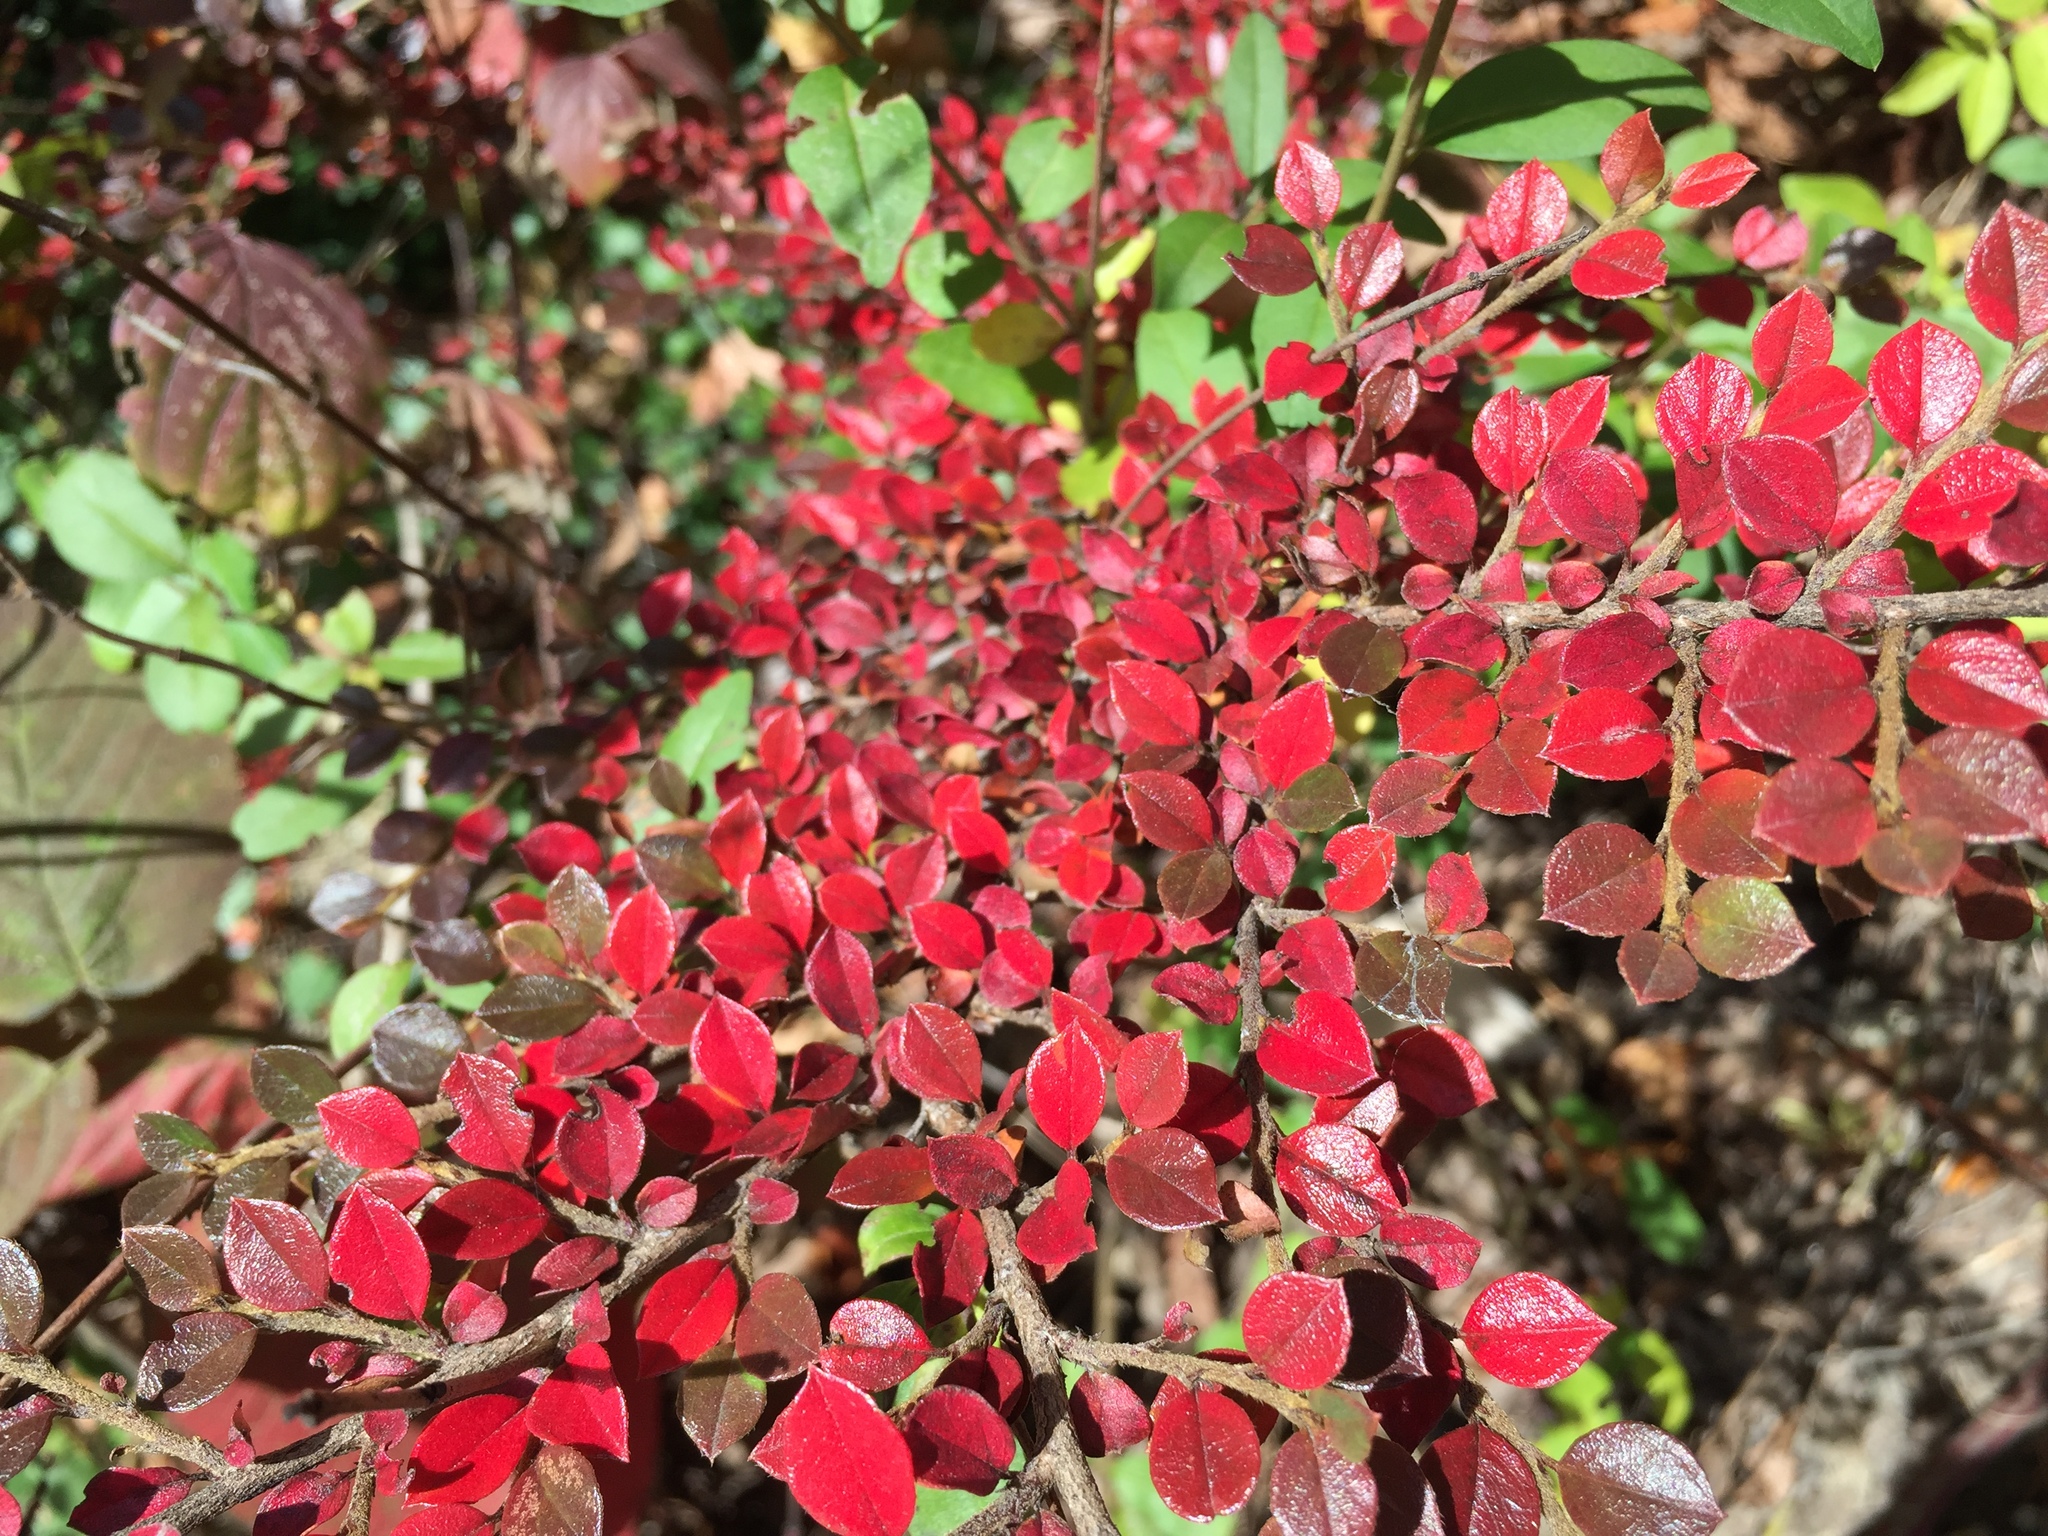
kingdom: Plantae
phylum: Tracheophyta
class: Magnoliopsida
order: Rosales
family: Rosaceae
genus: Cotoneaster
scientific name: Cotoneaster horizontalis
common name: Wall cotoneaster
